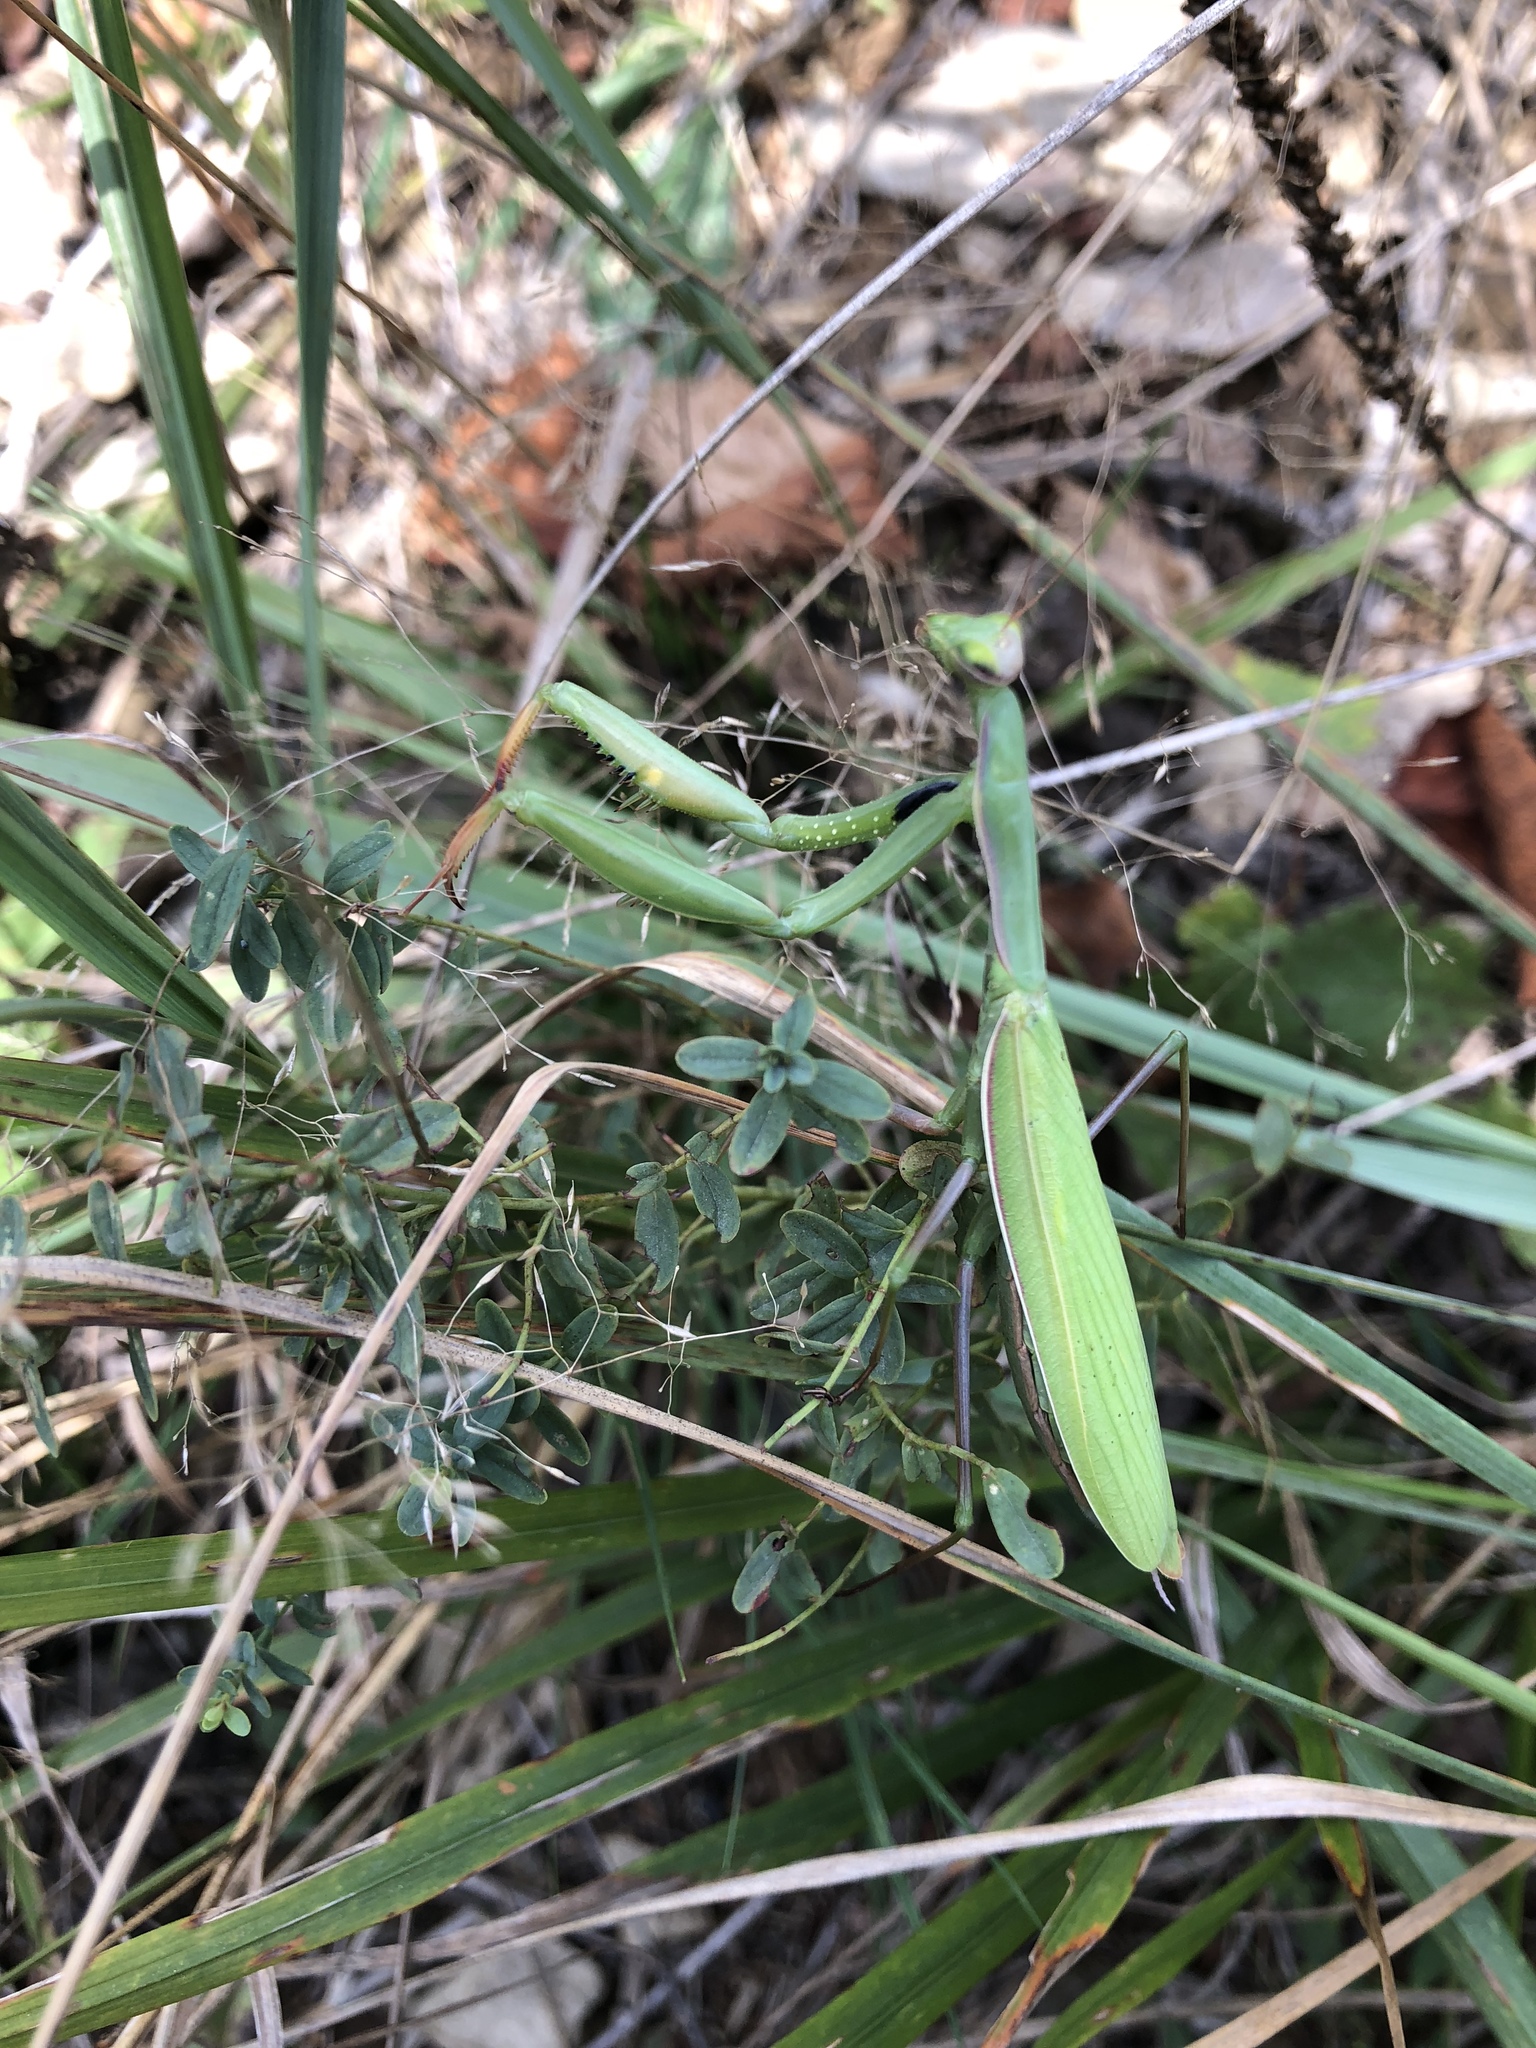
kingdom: Animalia
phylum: Arthropoda
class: Insecta
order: Mantodea
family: Mantidae
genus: Mantis
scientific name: Mantis religiosa
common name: Praying mantis
